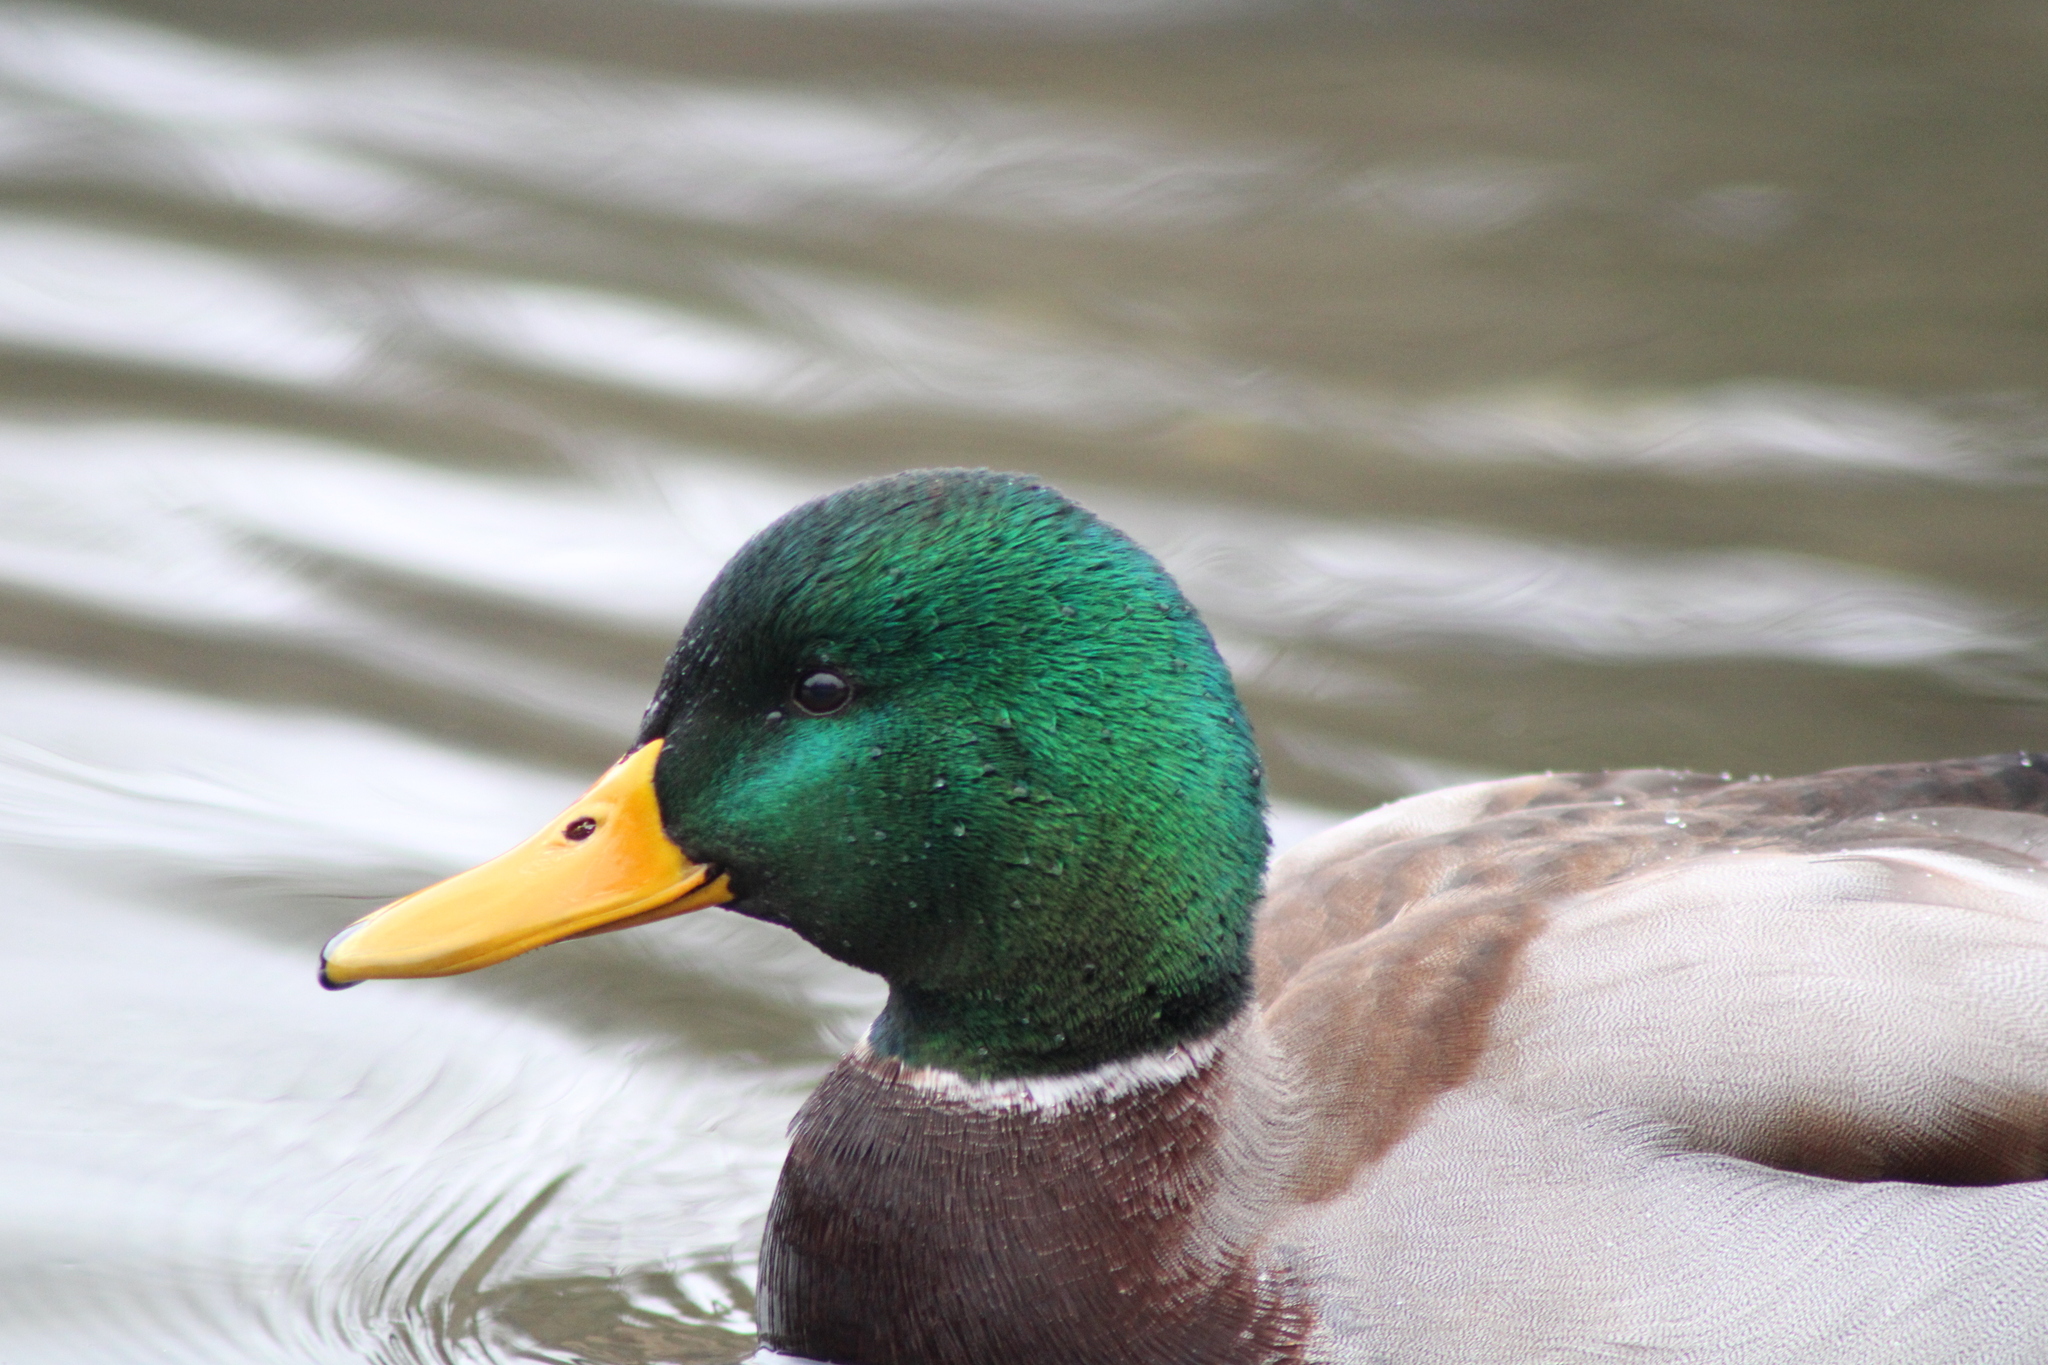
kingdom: Animalia
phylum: Chordata
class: Aves
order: Anseriformes
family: Anatidae
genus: Anas
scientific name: Anas platyrhynchos
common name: Mallard
